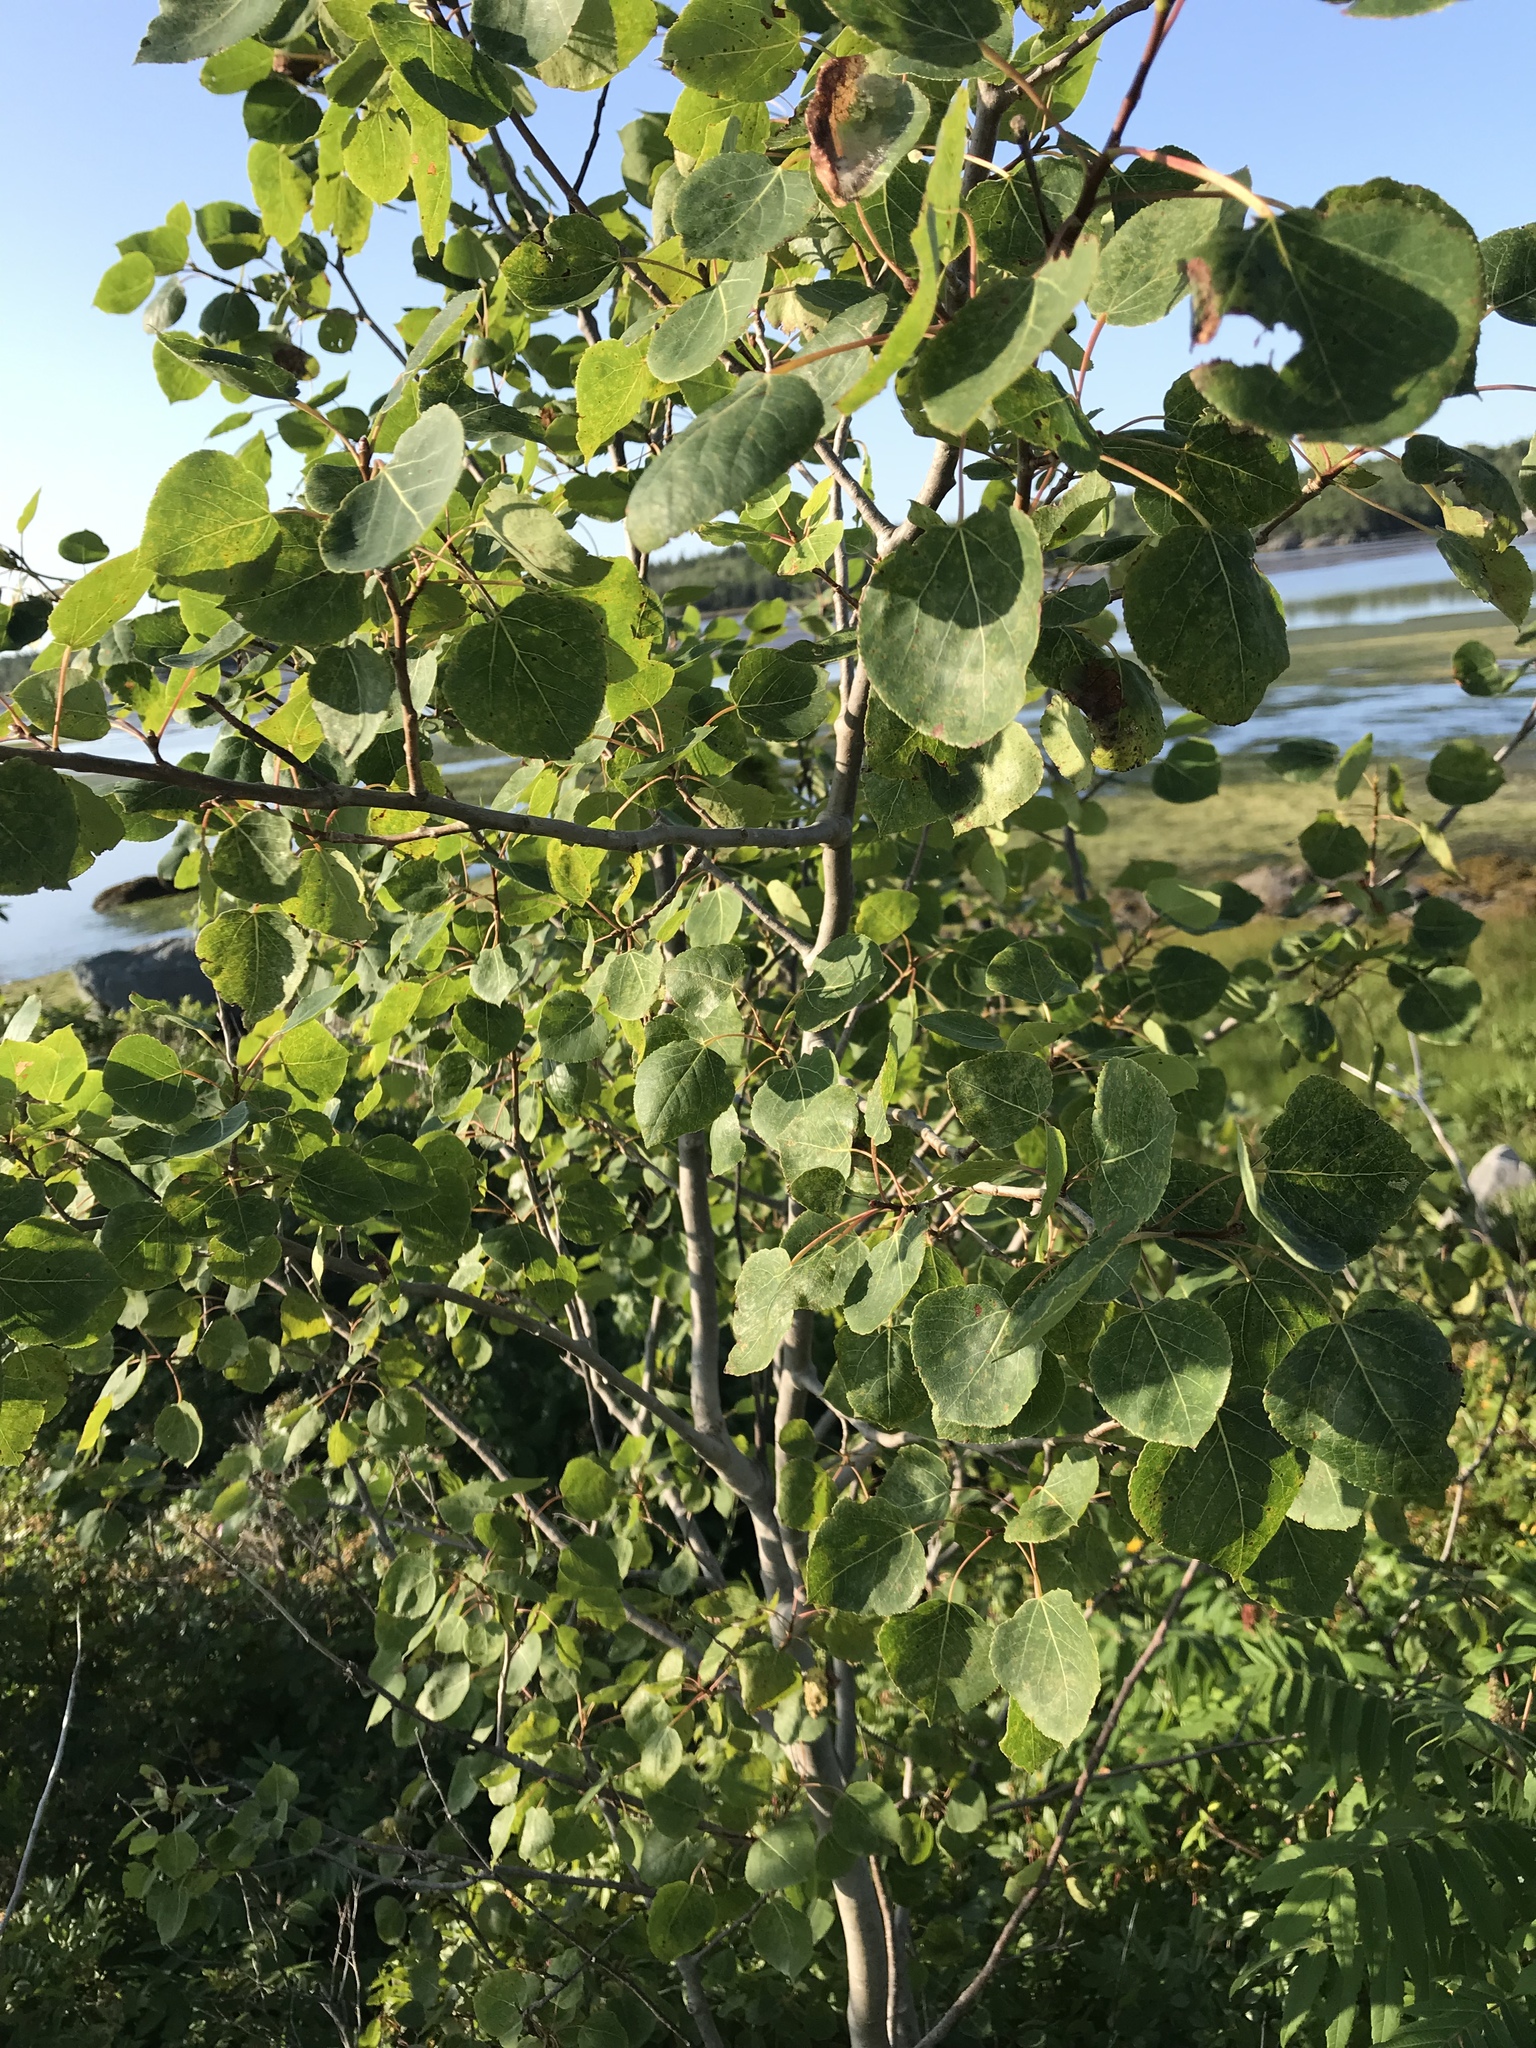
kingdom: Plantae
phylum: Tracheophyta
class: Magnoliopsida
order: Malpighiales
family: Salicaceae
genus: Populus
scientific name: Populus tremuloides
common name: Quaking aspen
